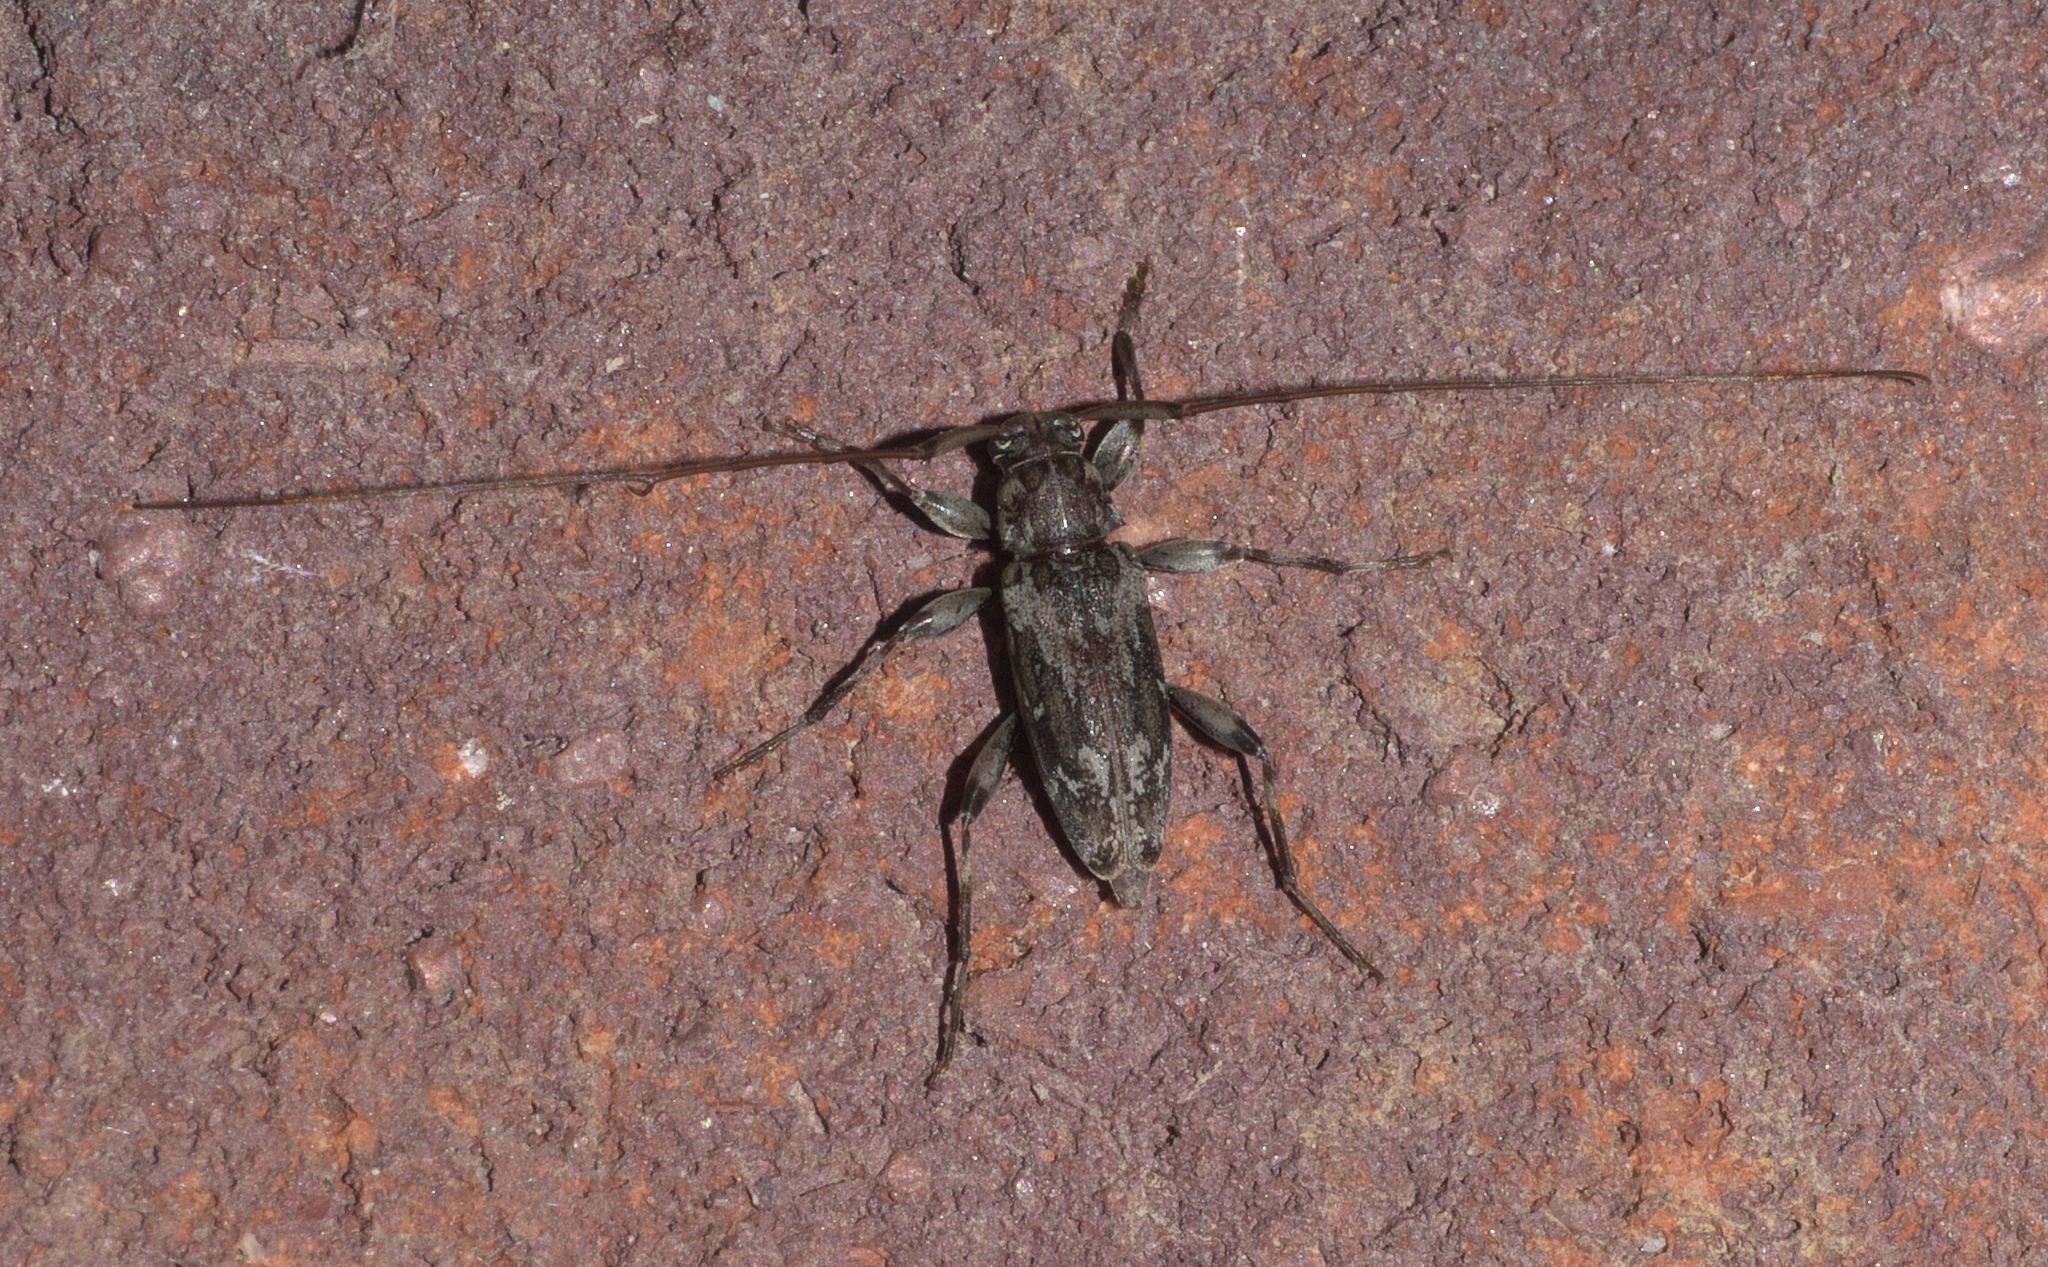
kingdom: Animalia
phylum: Arthropoda
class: Insecta
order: Coleoptera
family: Cerambycidae
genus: Lepturges
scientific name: Lepturges confluens
